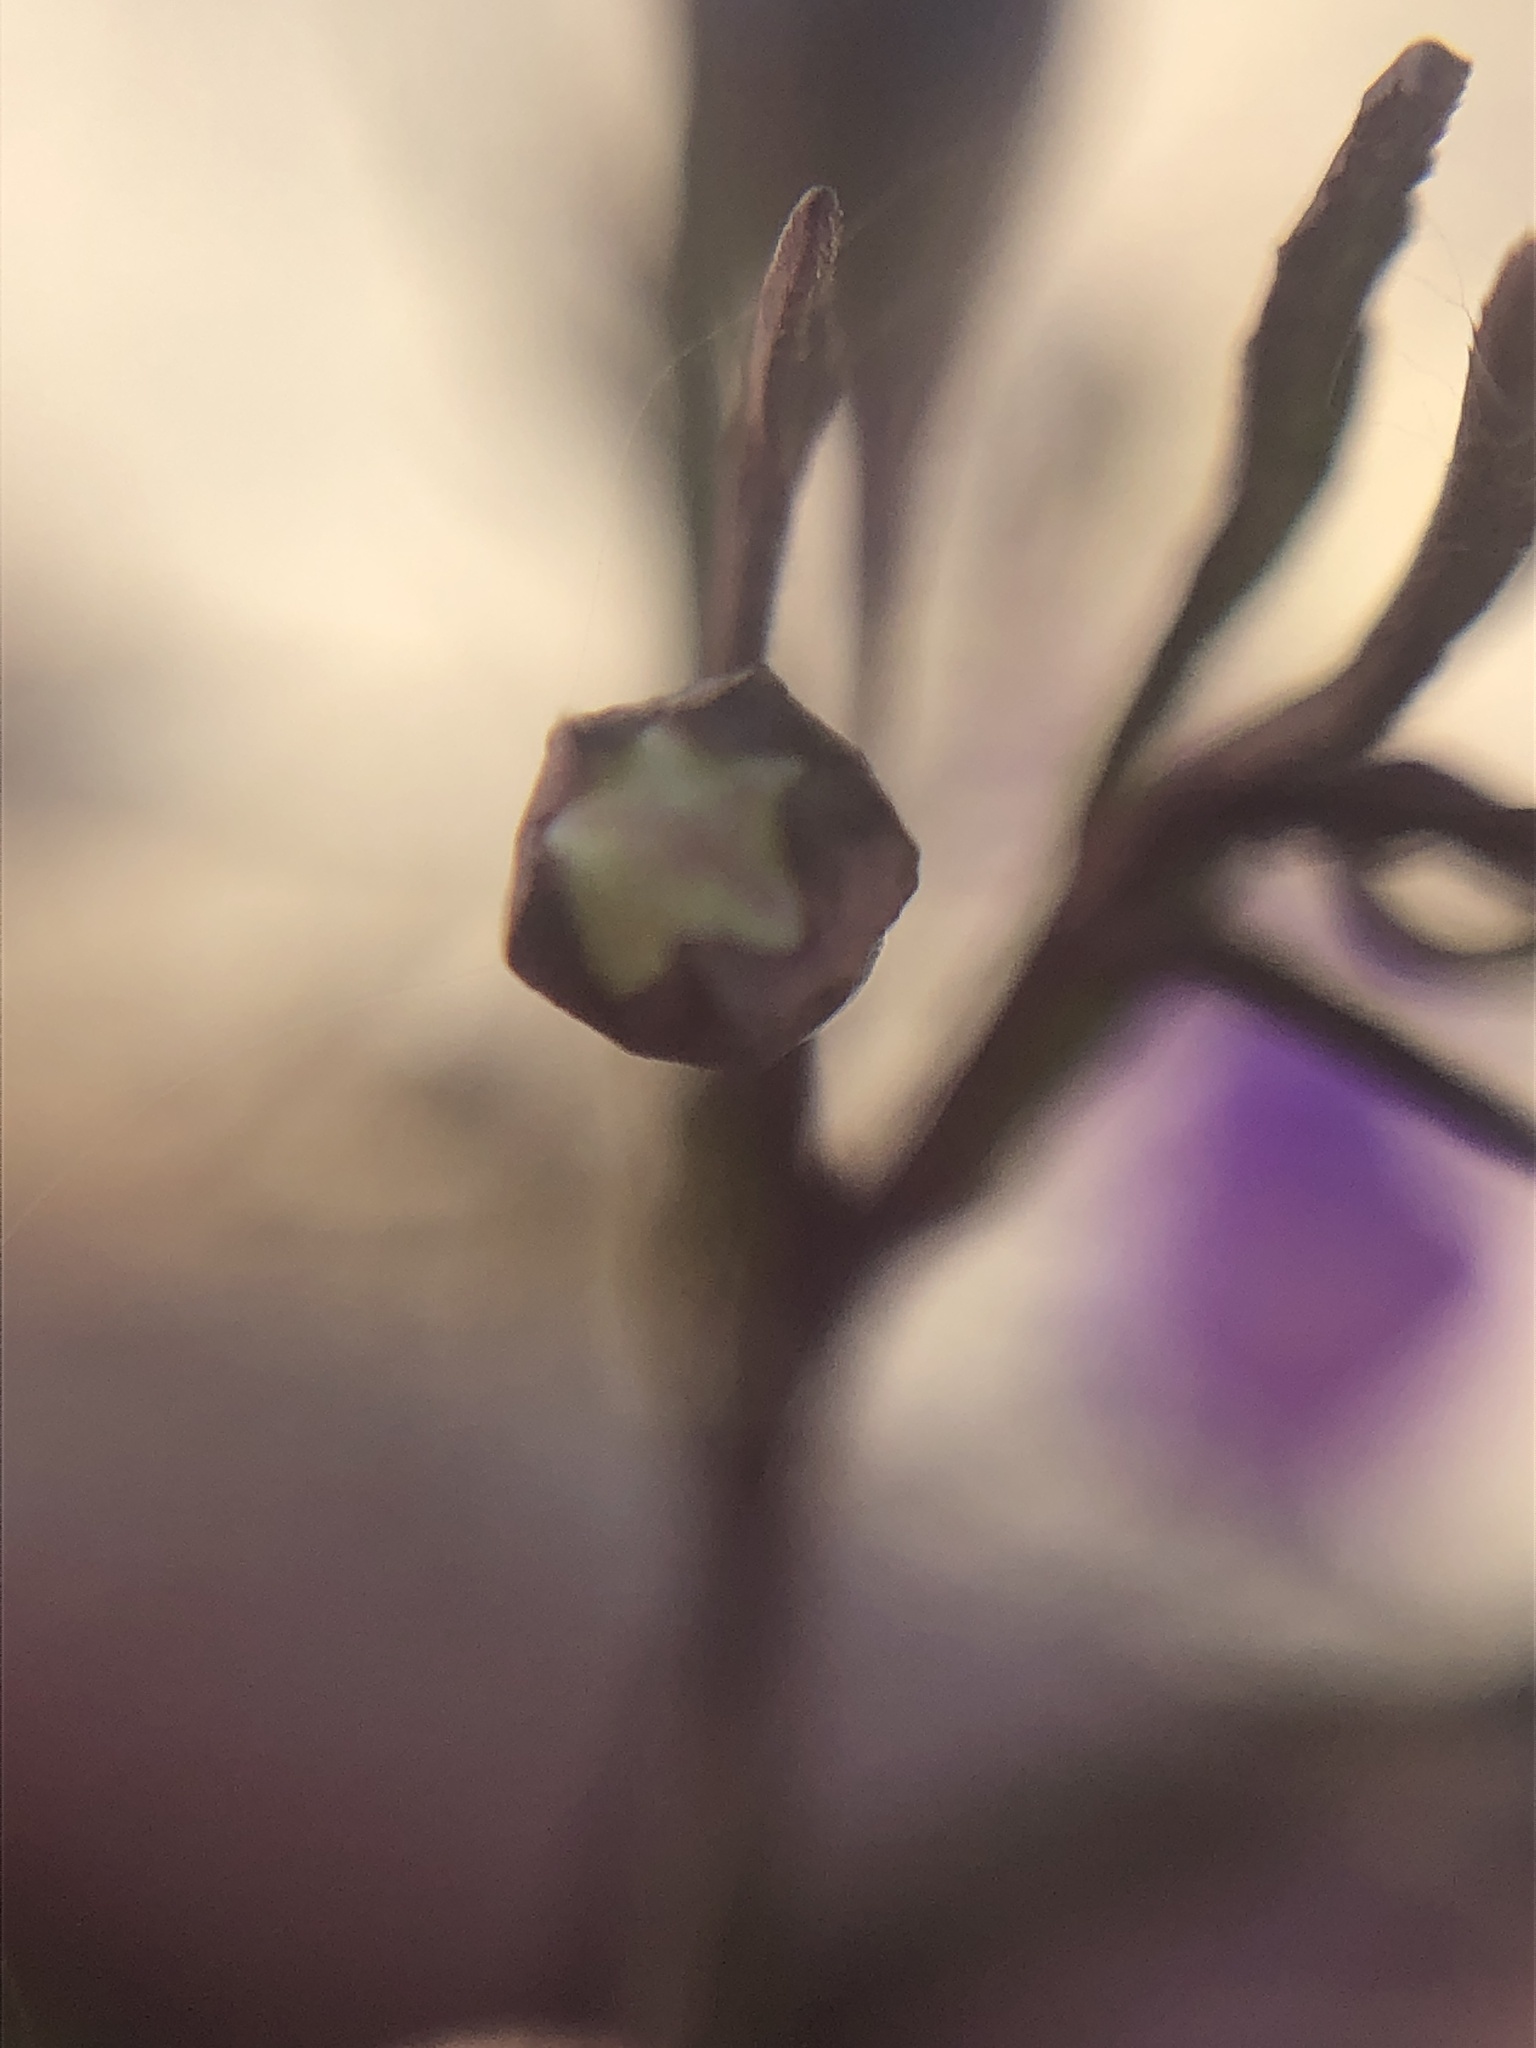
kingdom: Plantae
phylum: Tracheophyta
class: Magnoliopsida
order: Lamiales
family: Orobanchaceae
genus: Agalinis
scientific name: Agalinis tenuifolia
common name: Slender agalinis
